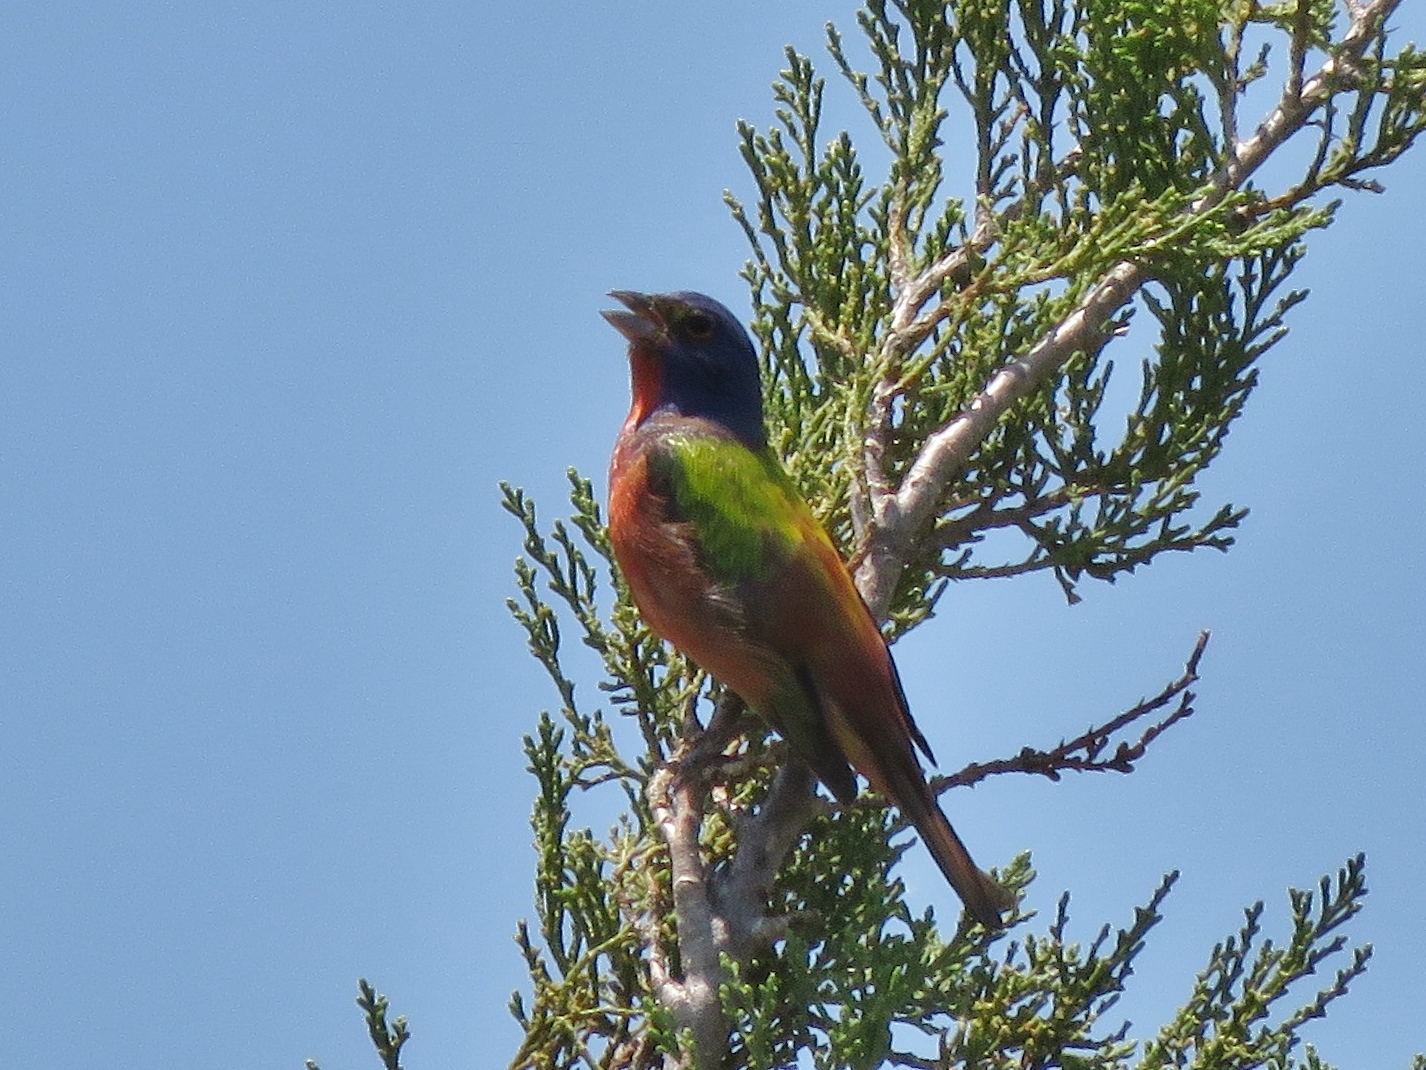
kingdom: Animalia
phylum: Chordata
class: Aves
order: Passeriformes
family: Cardinalidae
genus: Passerina
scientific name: Passerina ciris
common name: Painted bunting
